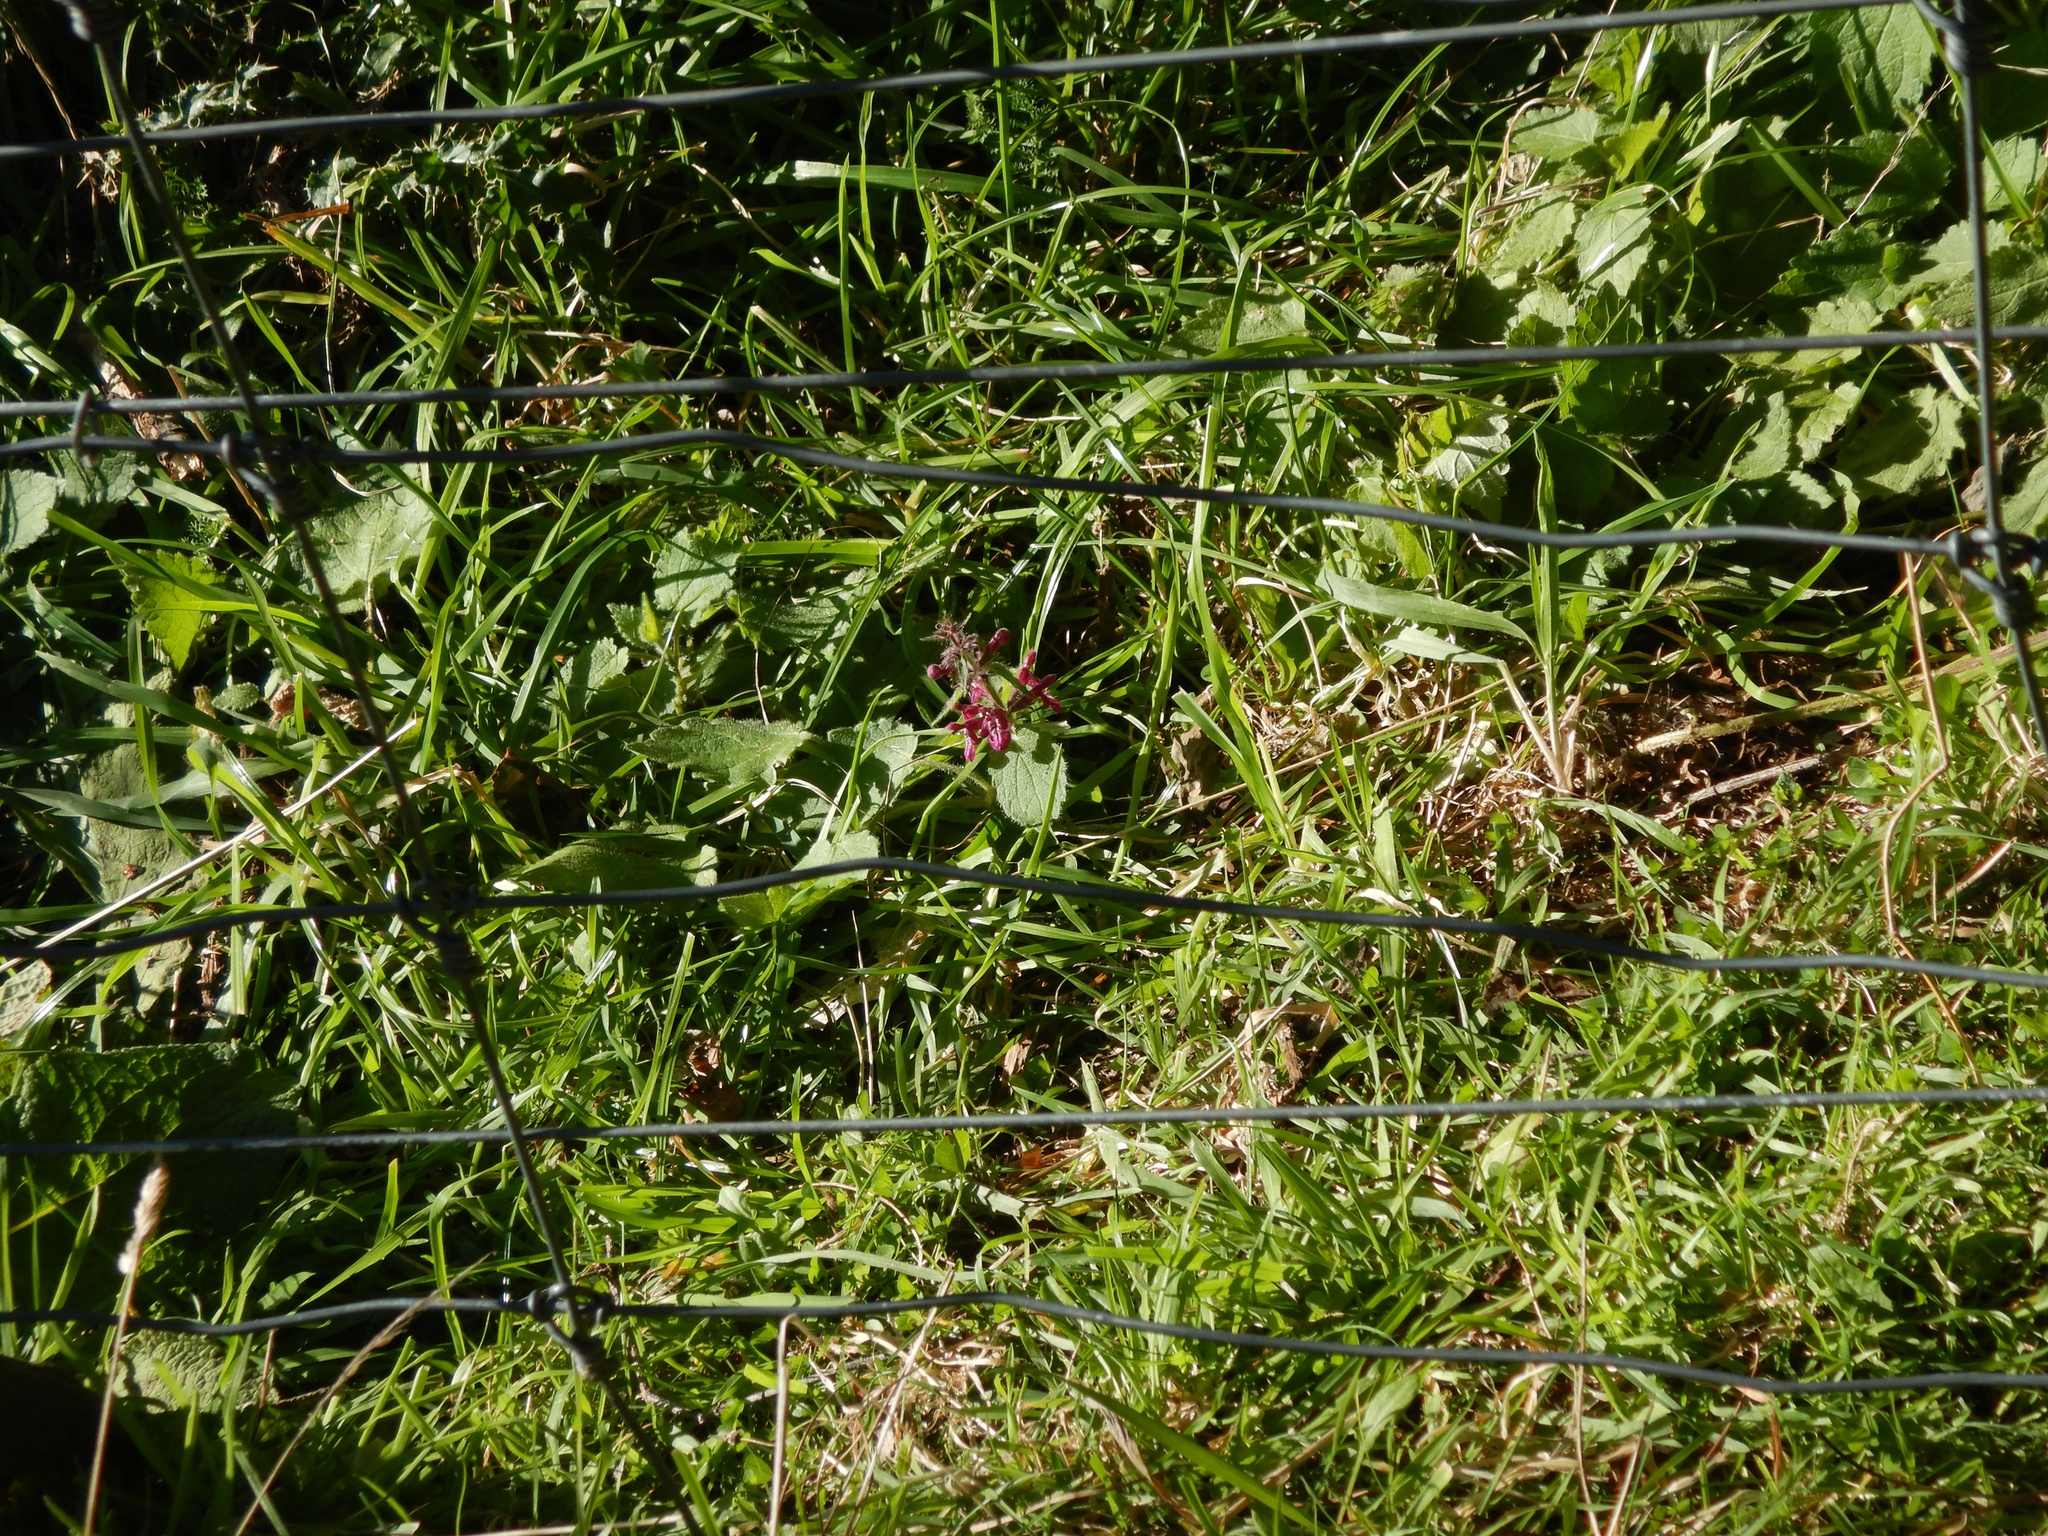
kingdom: Plantae
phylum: Tracheophyta
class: Magnoliopsida
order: Lamiales
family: Lamiaceae
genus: Stachys
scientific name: Stachys sylvatica
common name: Hedge woundwort
